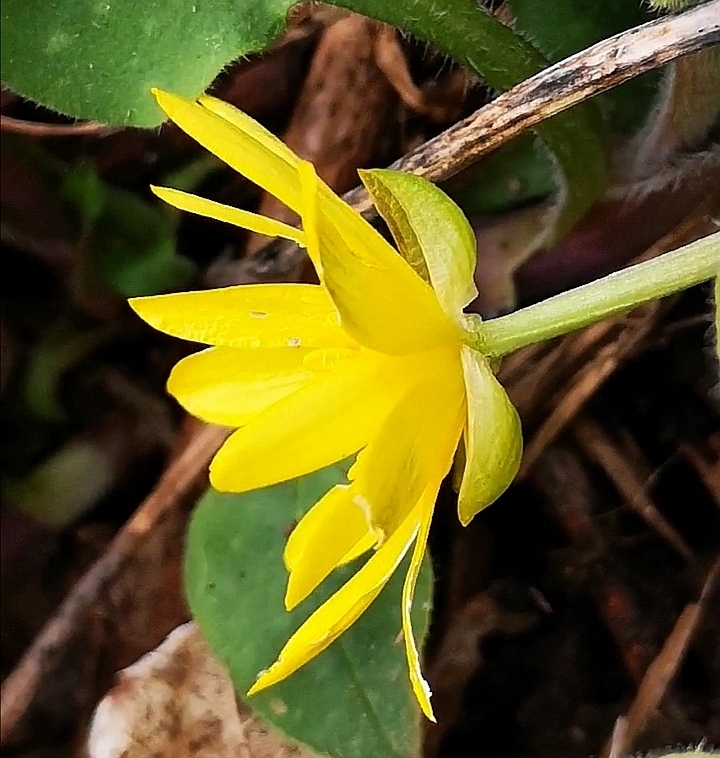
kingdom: Plantae
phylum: Tracheophyta
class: Magnoliopsida
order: Ranunculales
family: Ranunculaceae
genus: Ficaria
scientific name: Ficaria verna
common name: Lesser celandine
